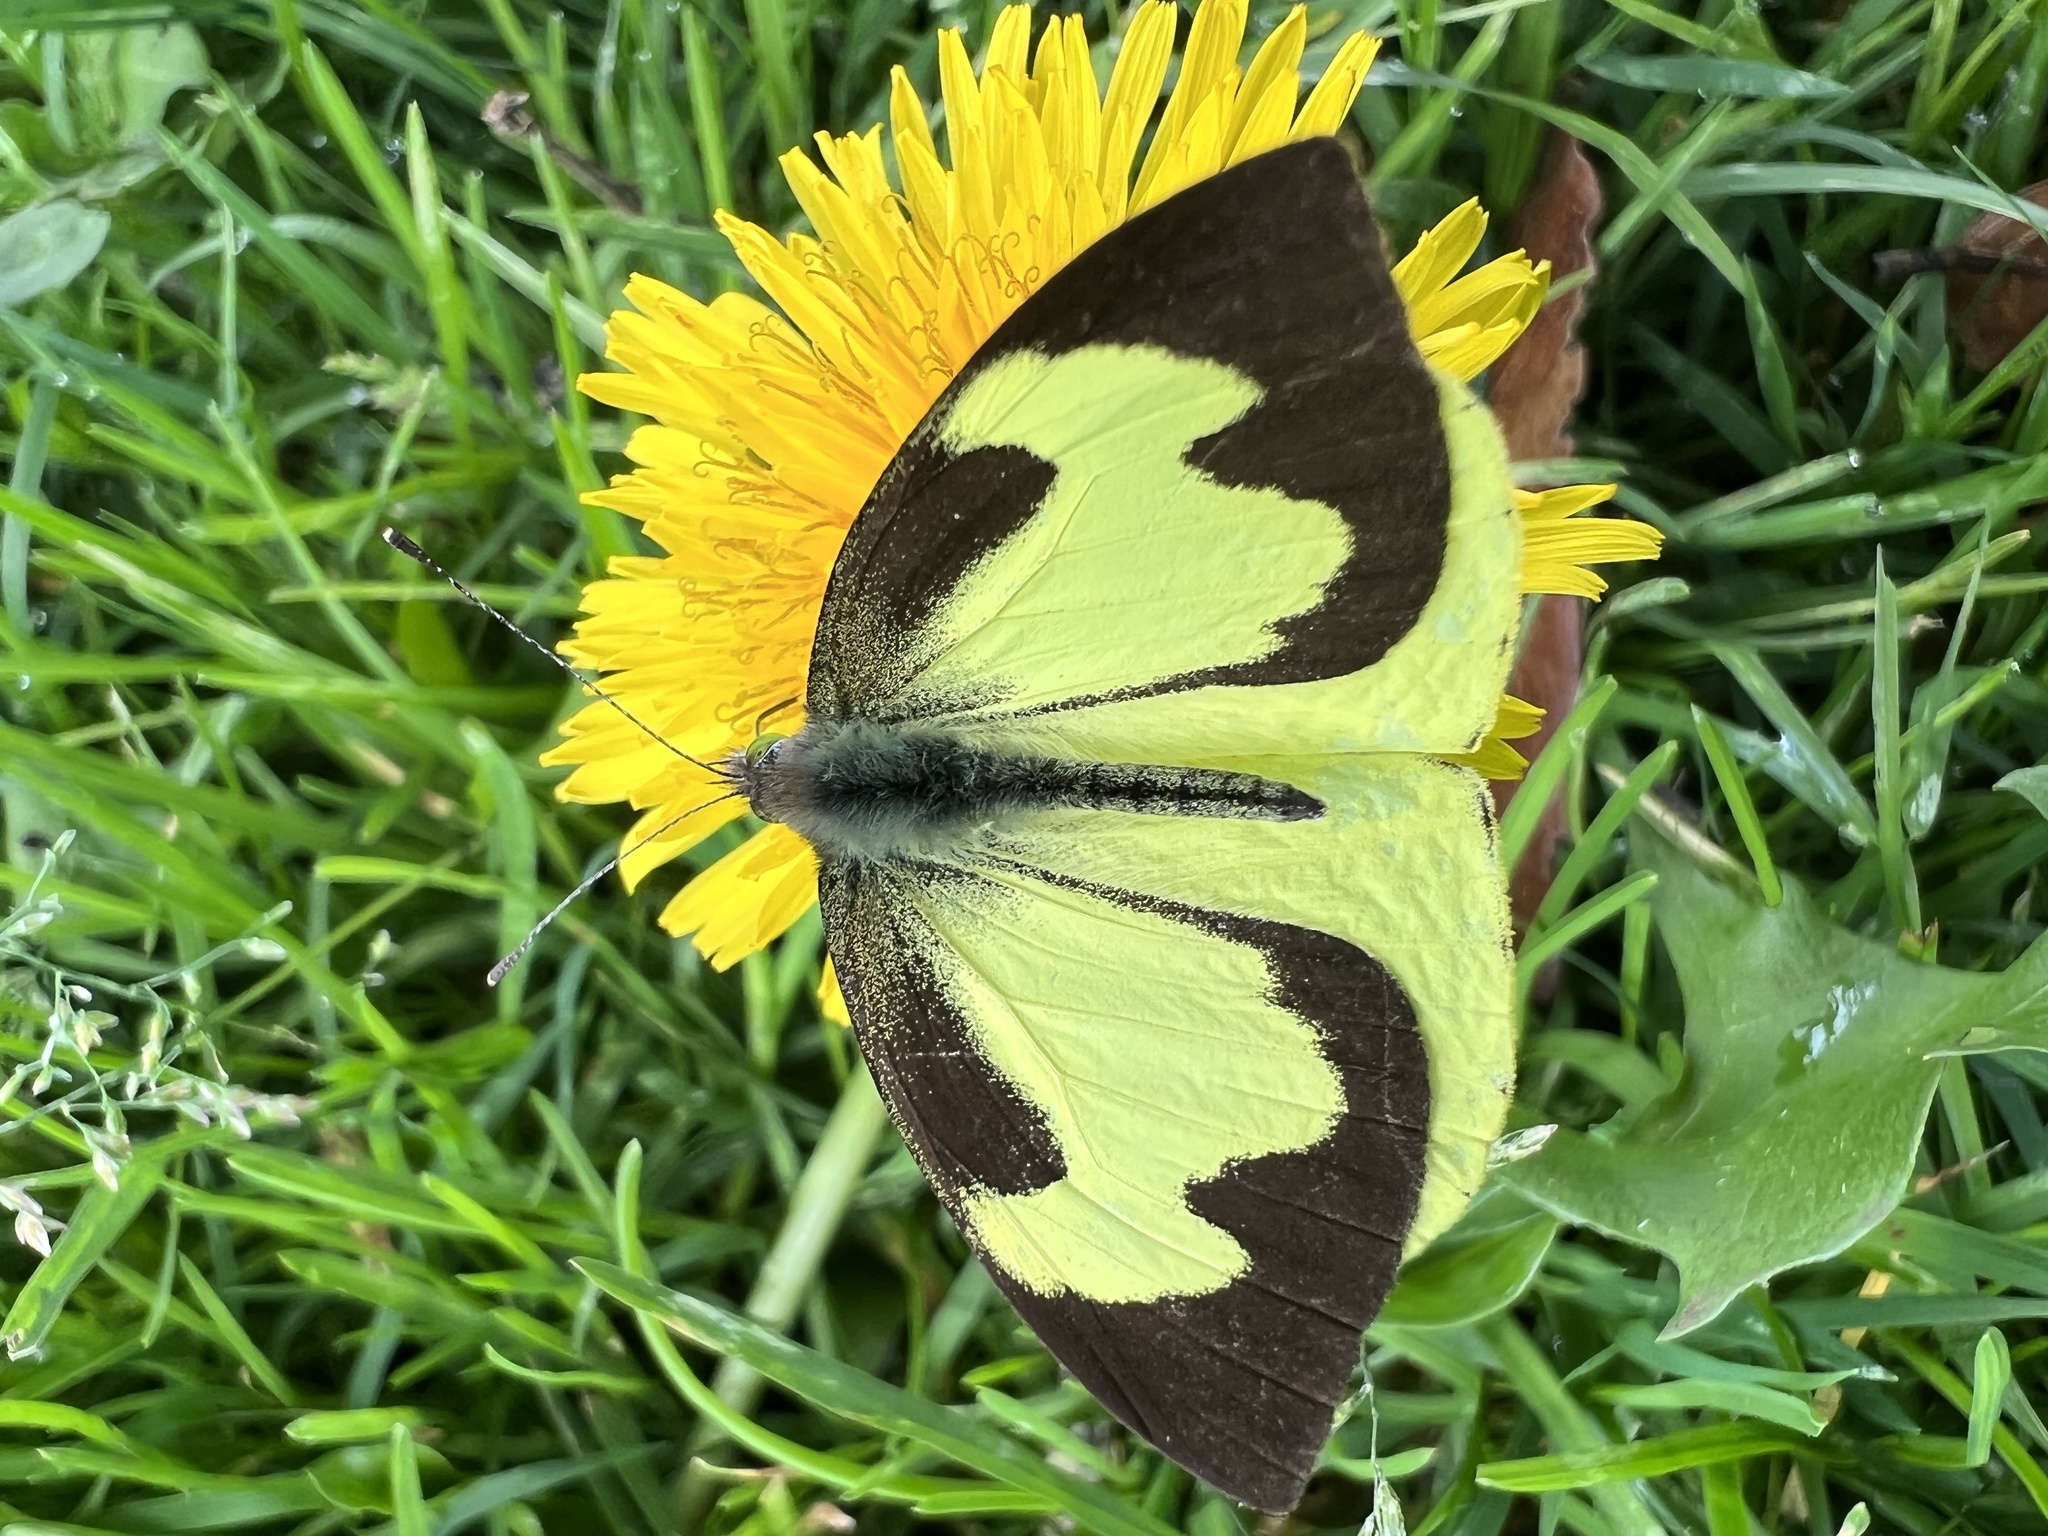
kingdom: Animalia
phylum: Arthropoda
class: Insecta
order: Lepidoptera
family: Pieridae
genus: Leptophobia
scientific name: Leptophobia eleone
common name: Silky wanderer
